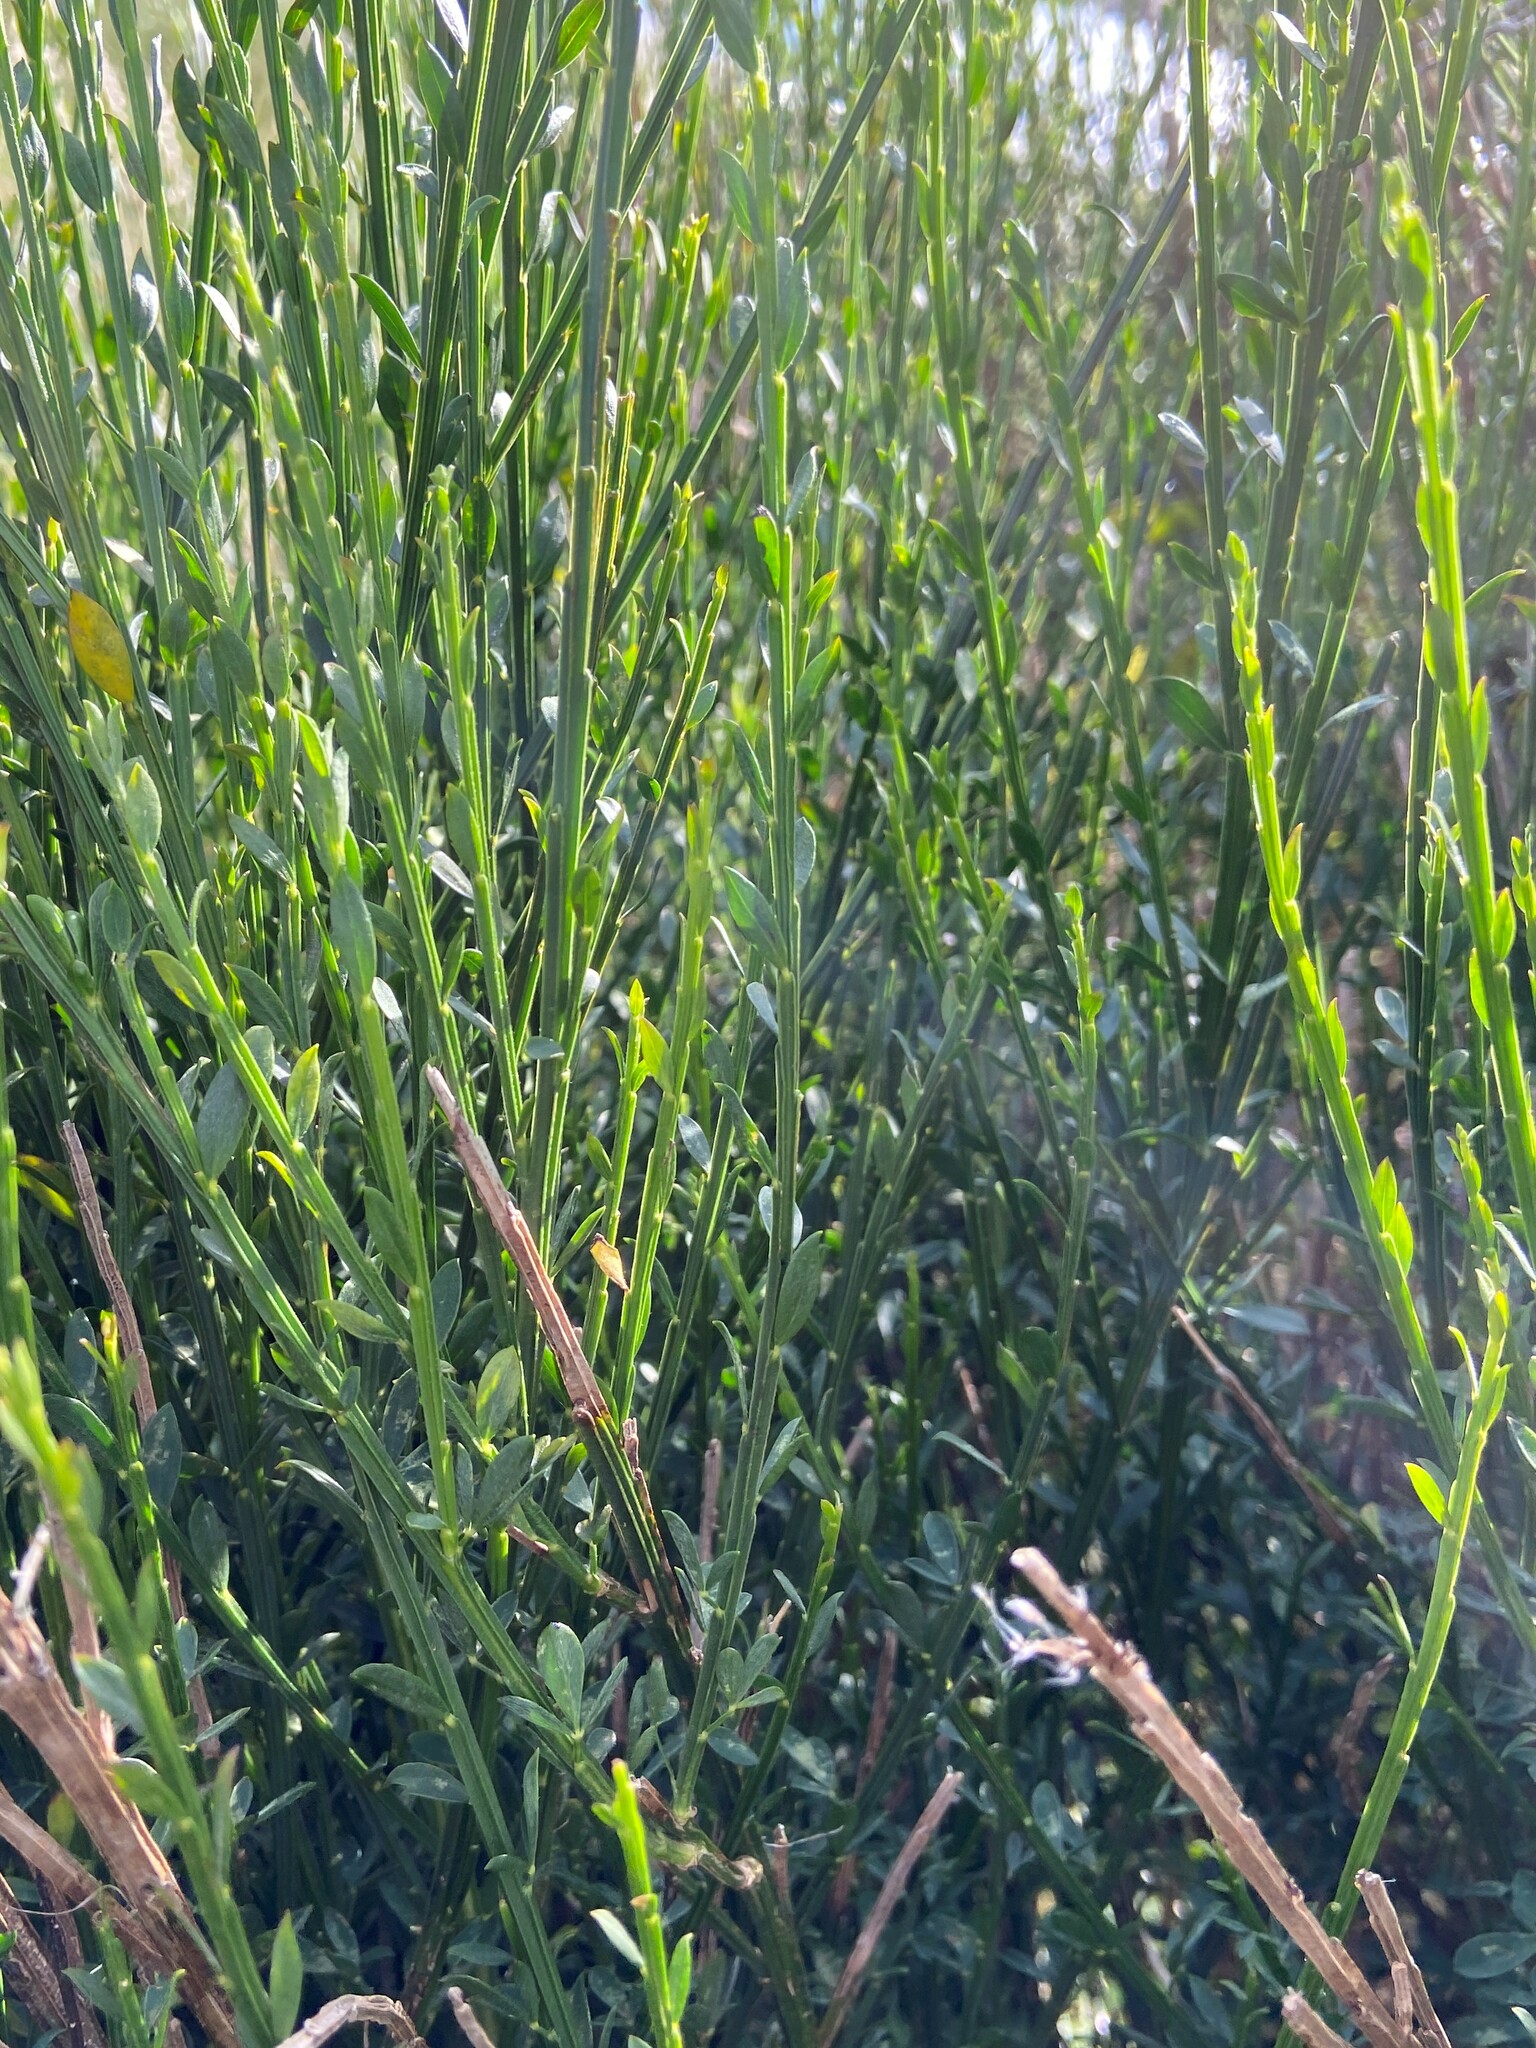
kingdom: Plantae
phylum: Tracheophyta
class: Magnoliopsida
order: Fabales
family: Fabaceae
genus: Cytisus
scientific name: Cytisus scoparius
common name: Scotch broom
